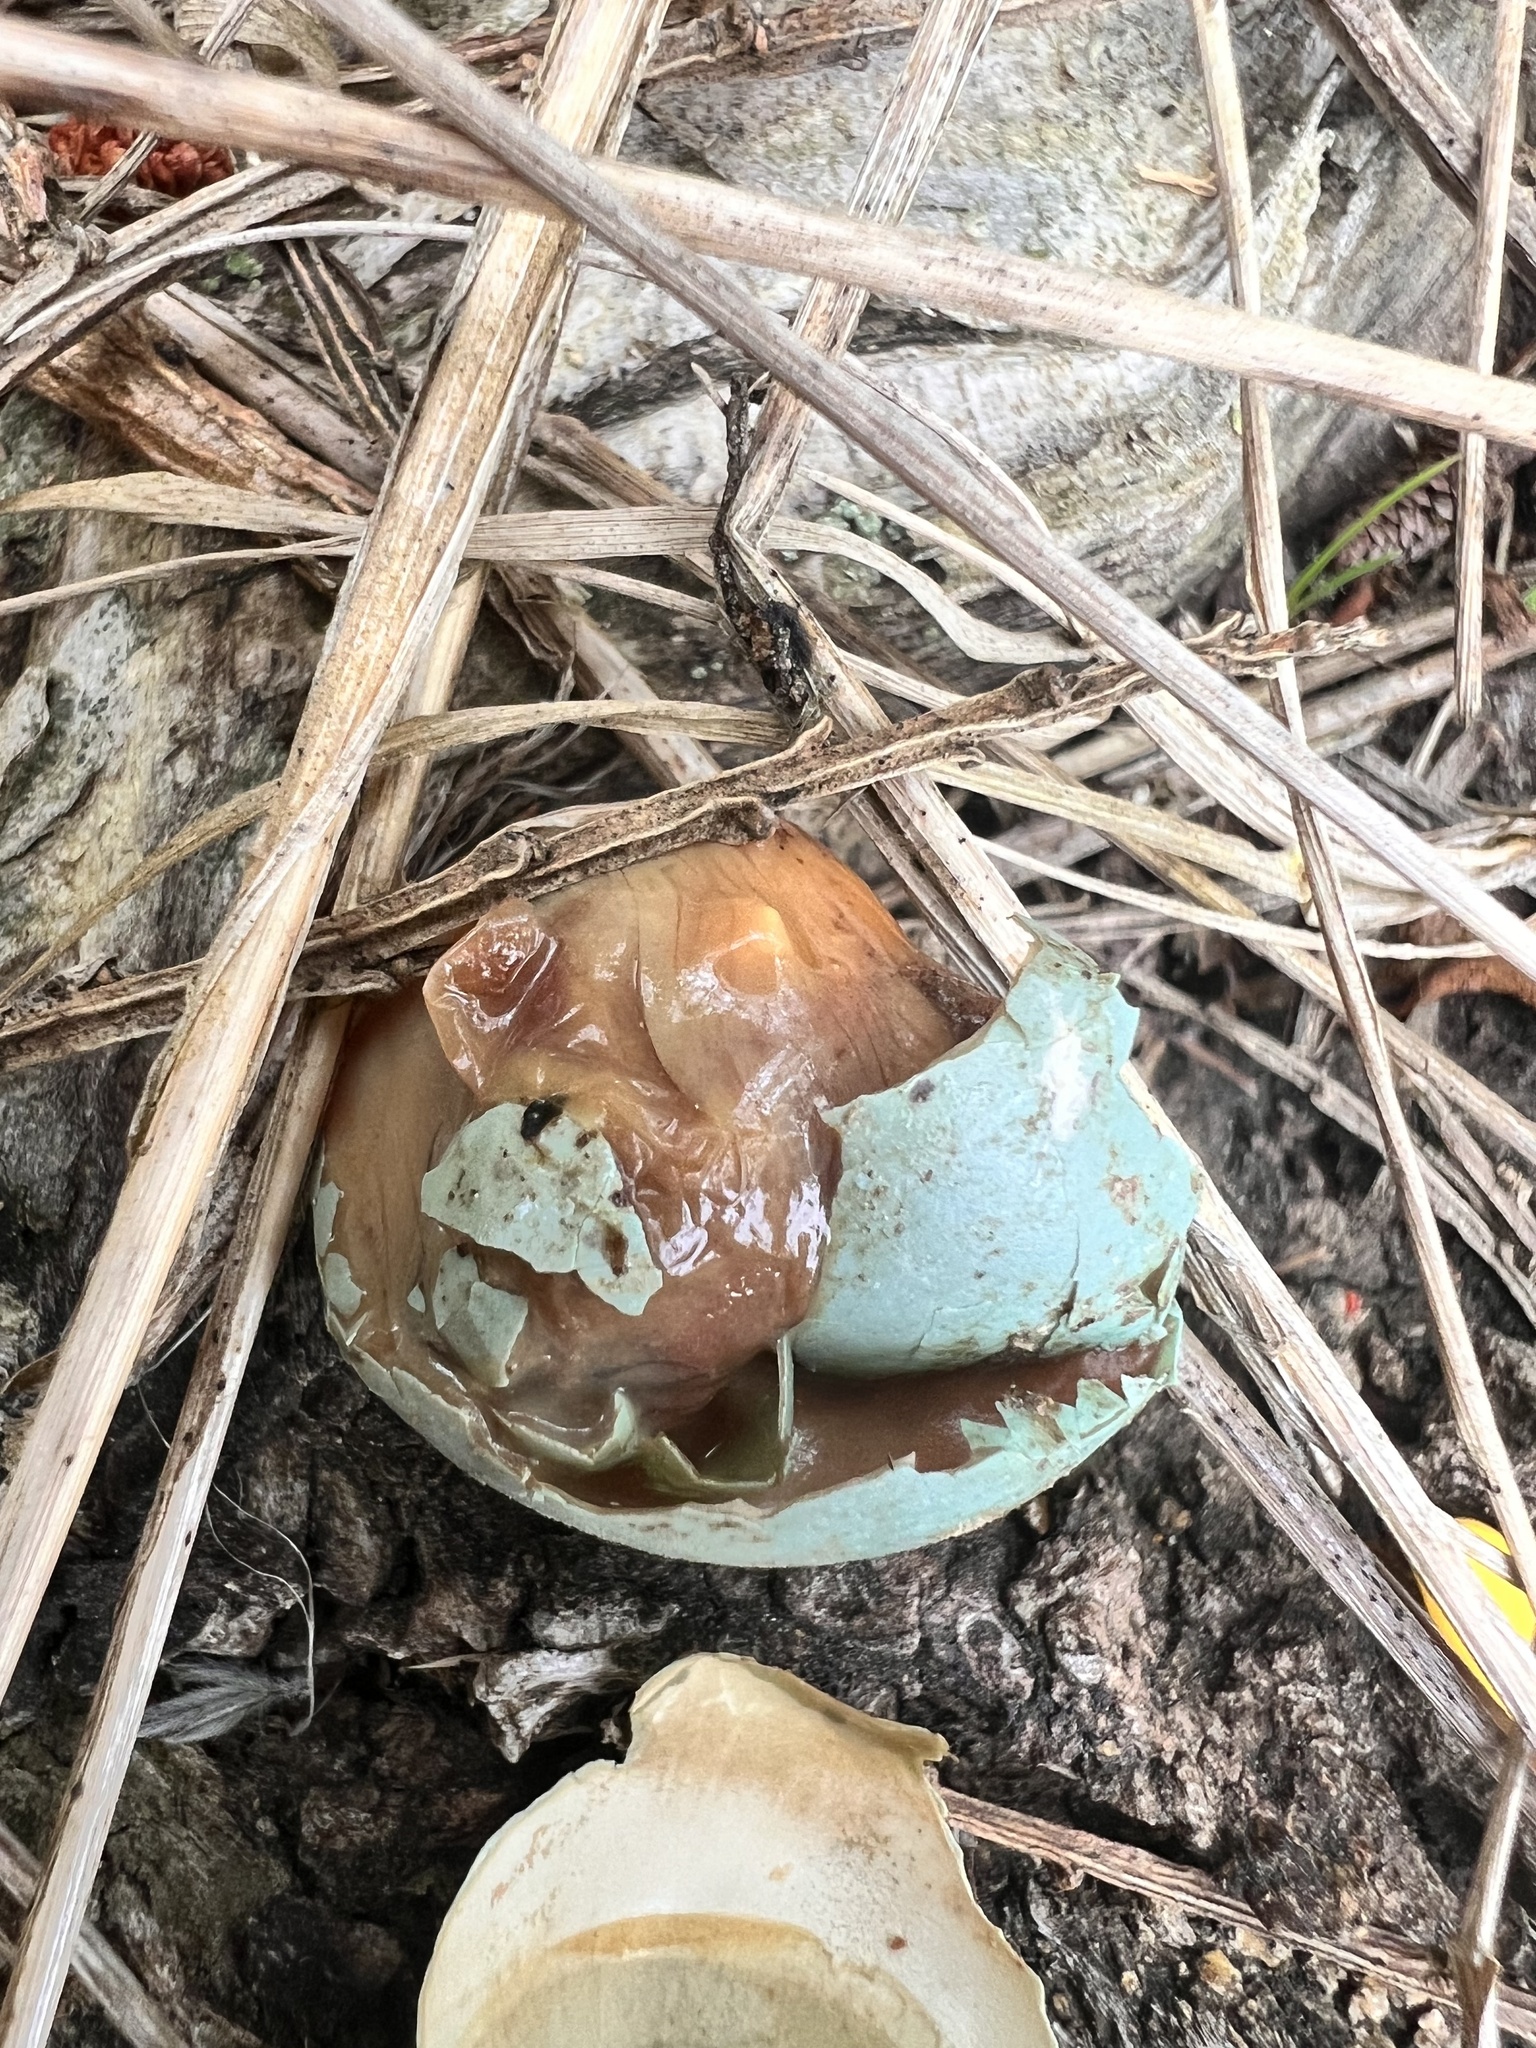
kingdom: Animalia
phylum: Chordata
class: Aves
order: Passeriformes
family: Turdidae
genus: Turdus
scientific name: Turdus philomelos
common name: Song thrush
